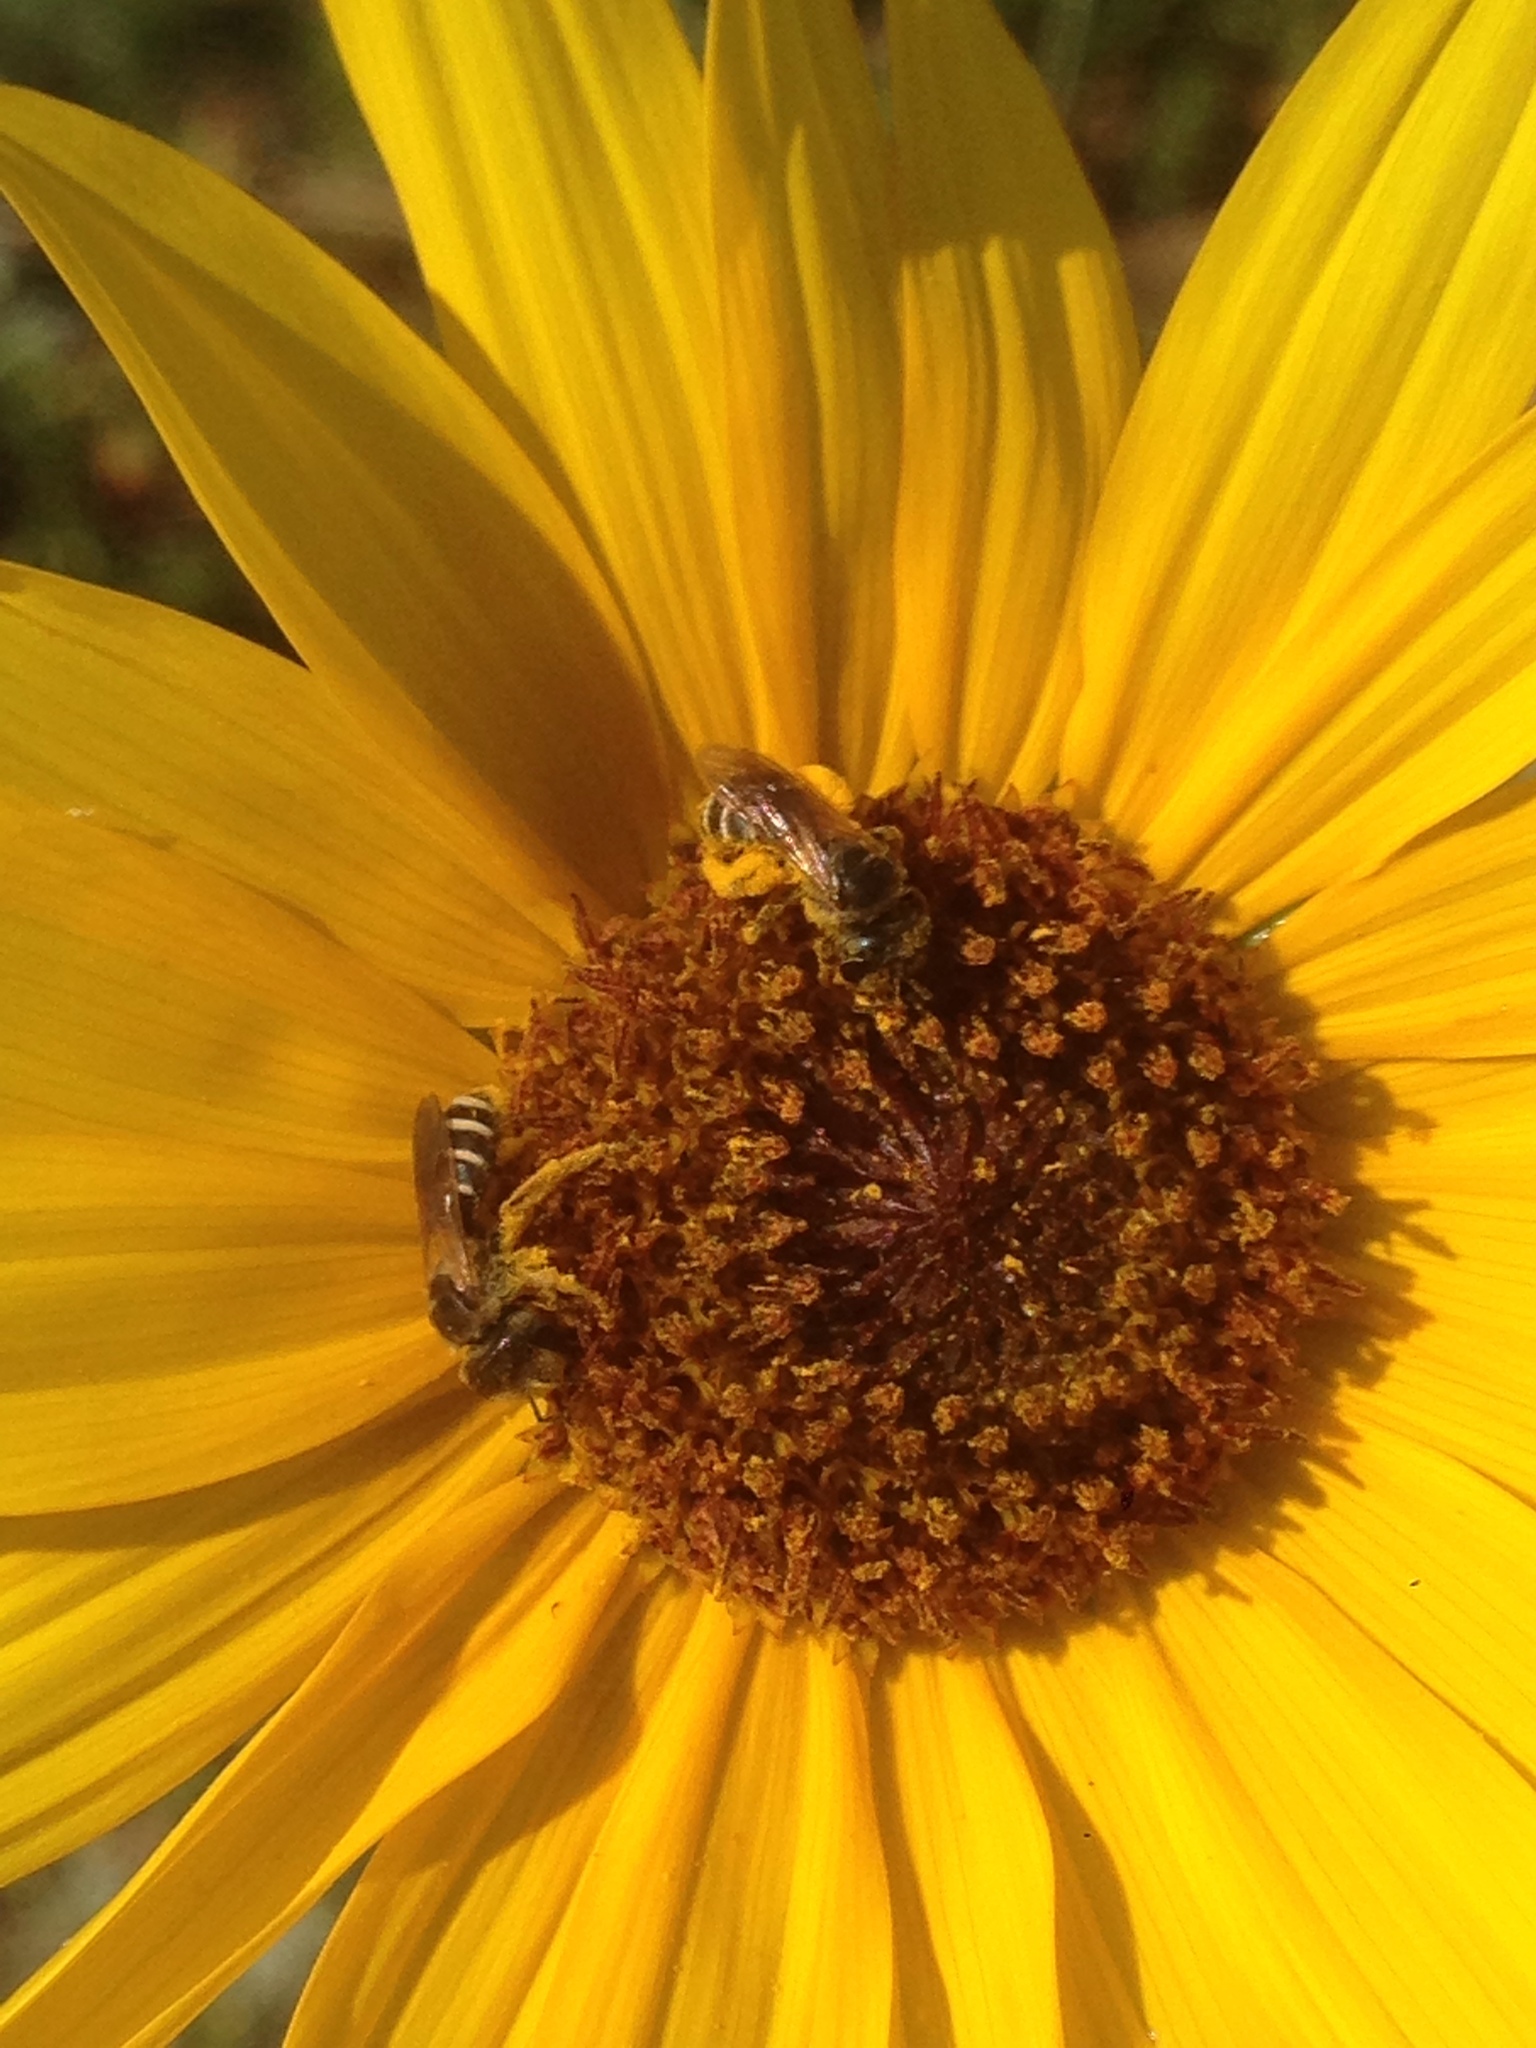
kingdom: Plantae
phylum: Tracheophyta
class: Magnoliopsida
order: Asterales
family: Asteraceae
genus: Helianthus
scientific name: Helianthus annuus
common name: Sunflower
